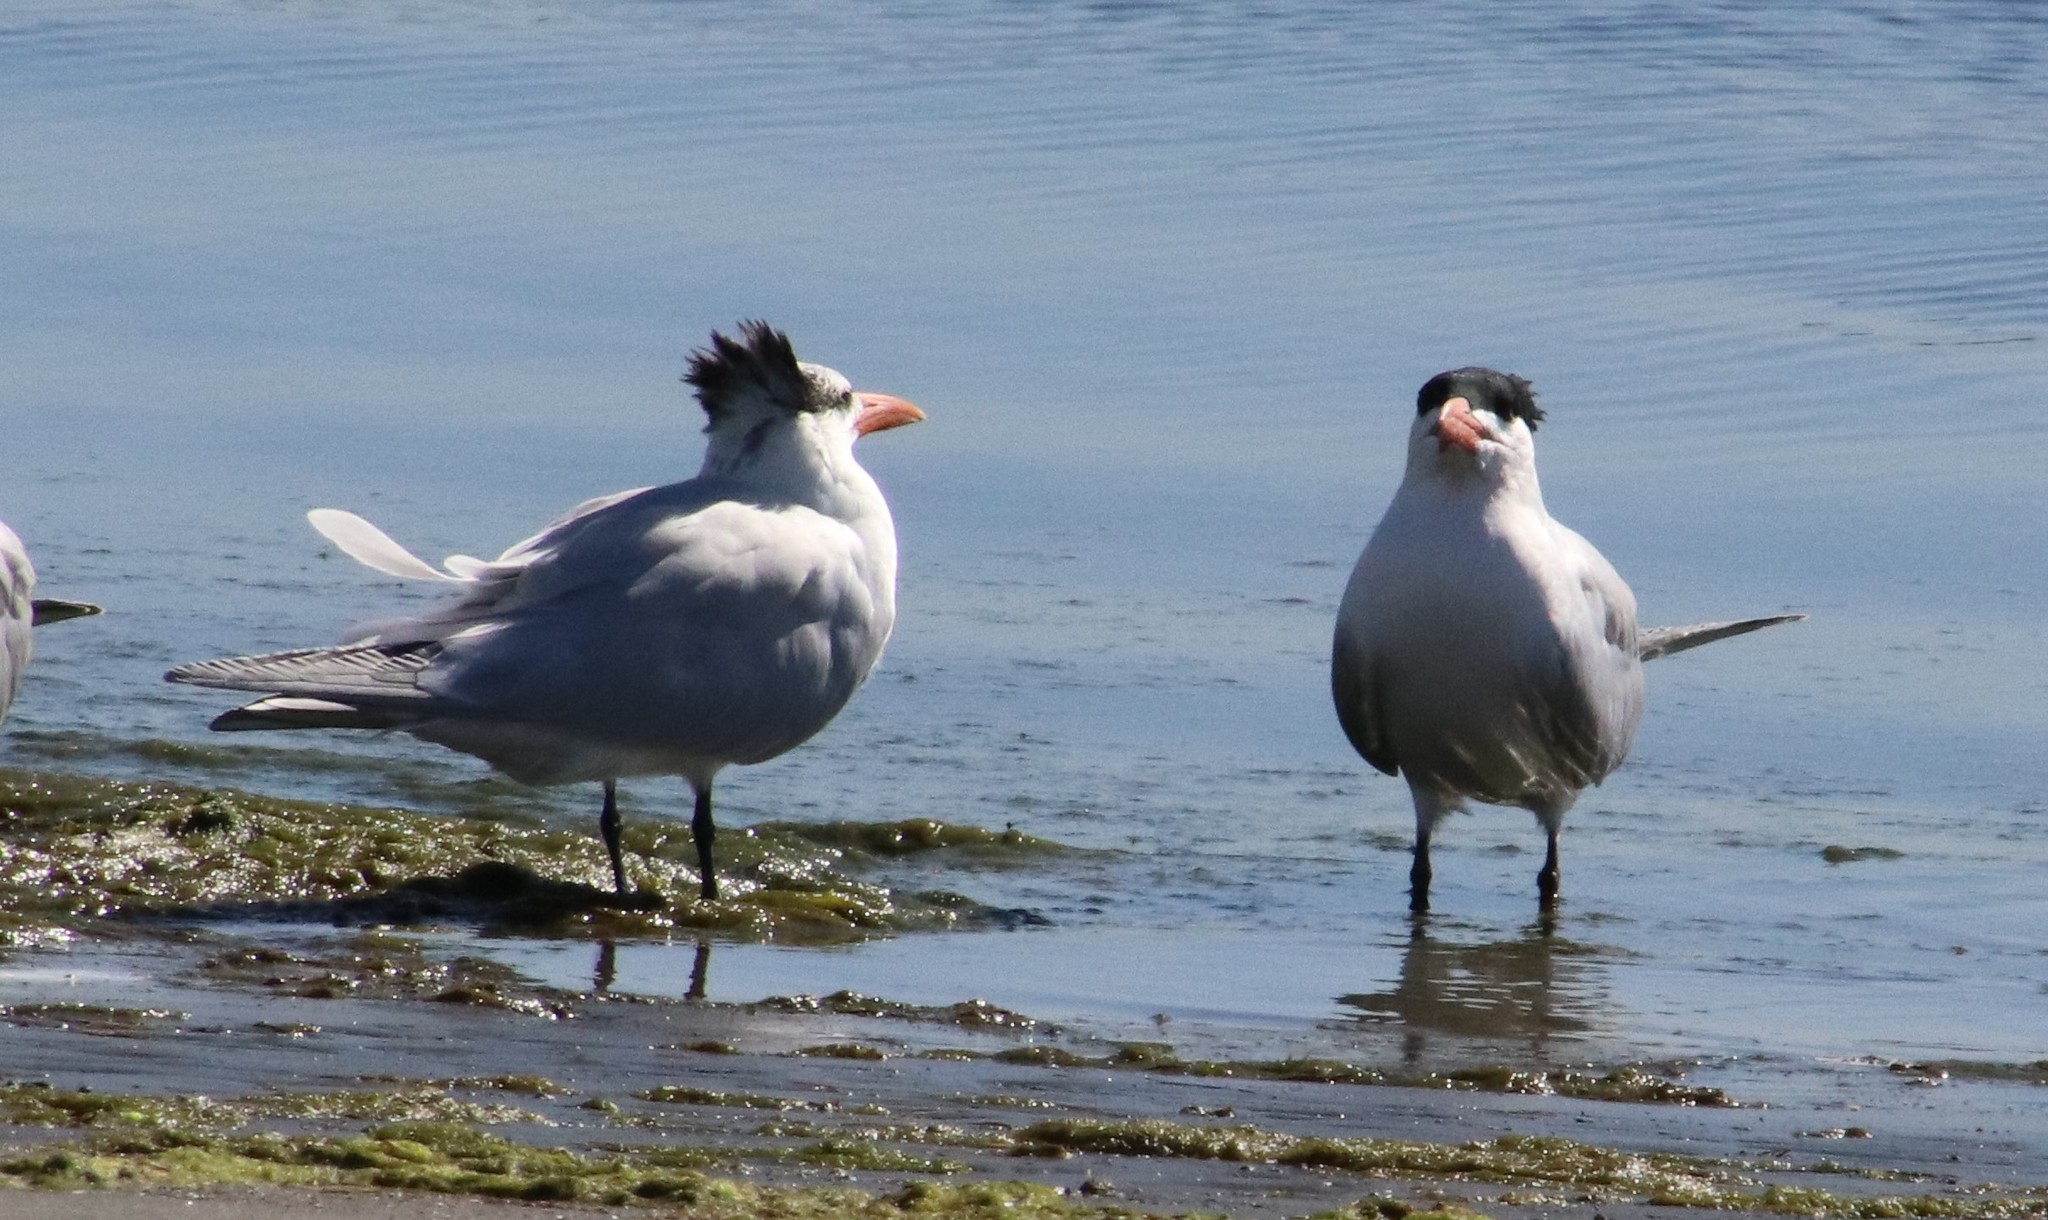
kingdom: Animalia
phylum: Chordata
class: Aves
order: Charadriiformes
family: Laridae
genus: Thalasseus
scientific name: Thalasseus maximus
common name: Royal tern
